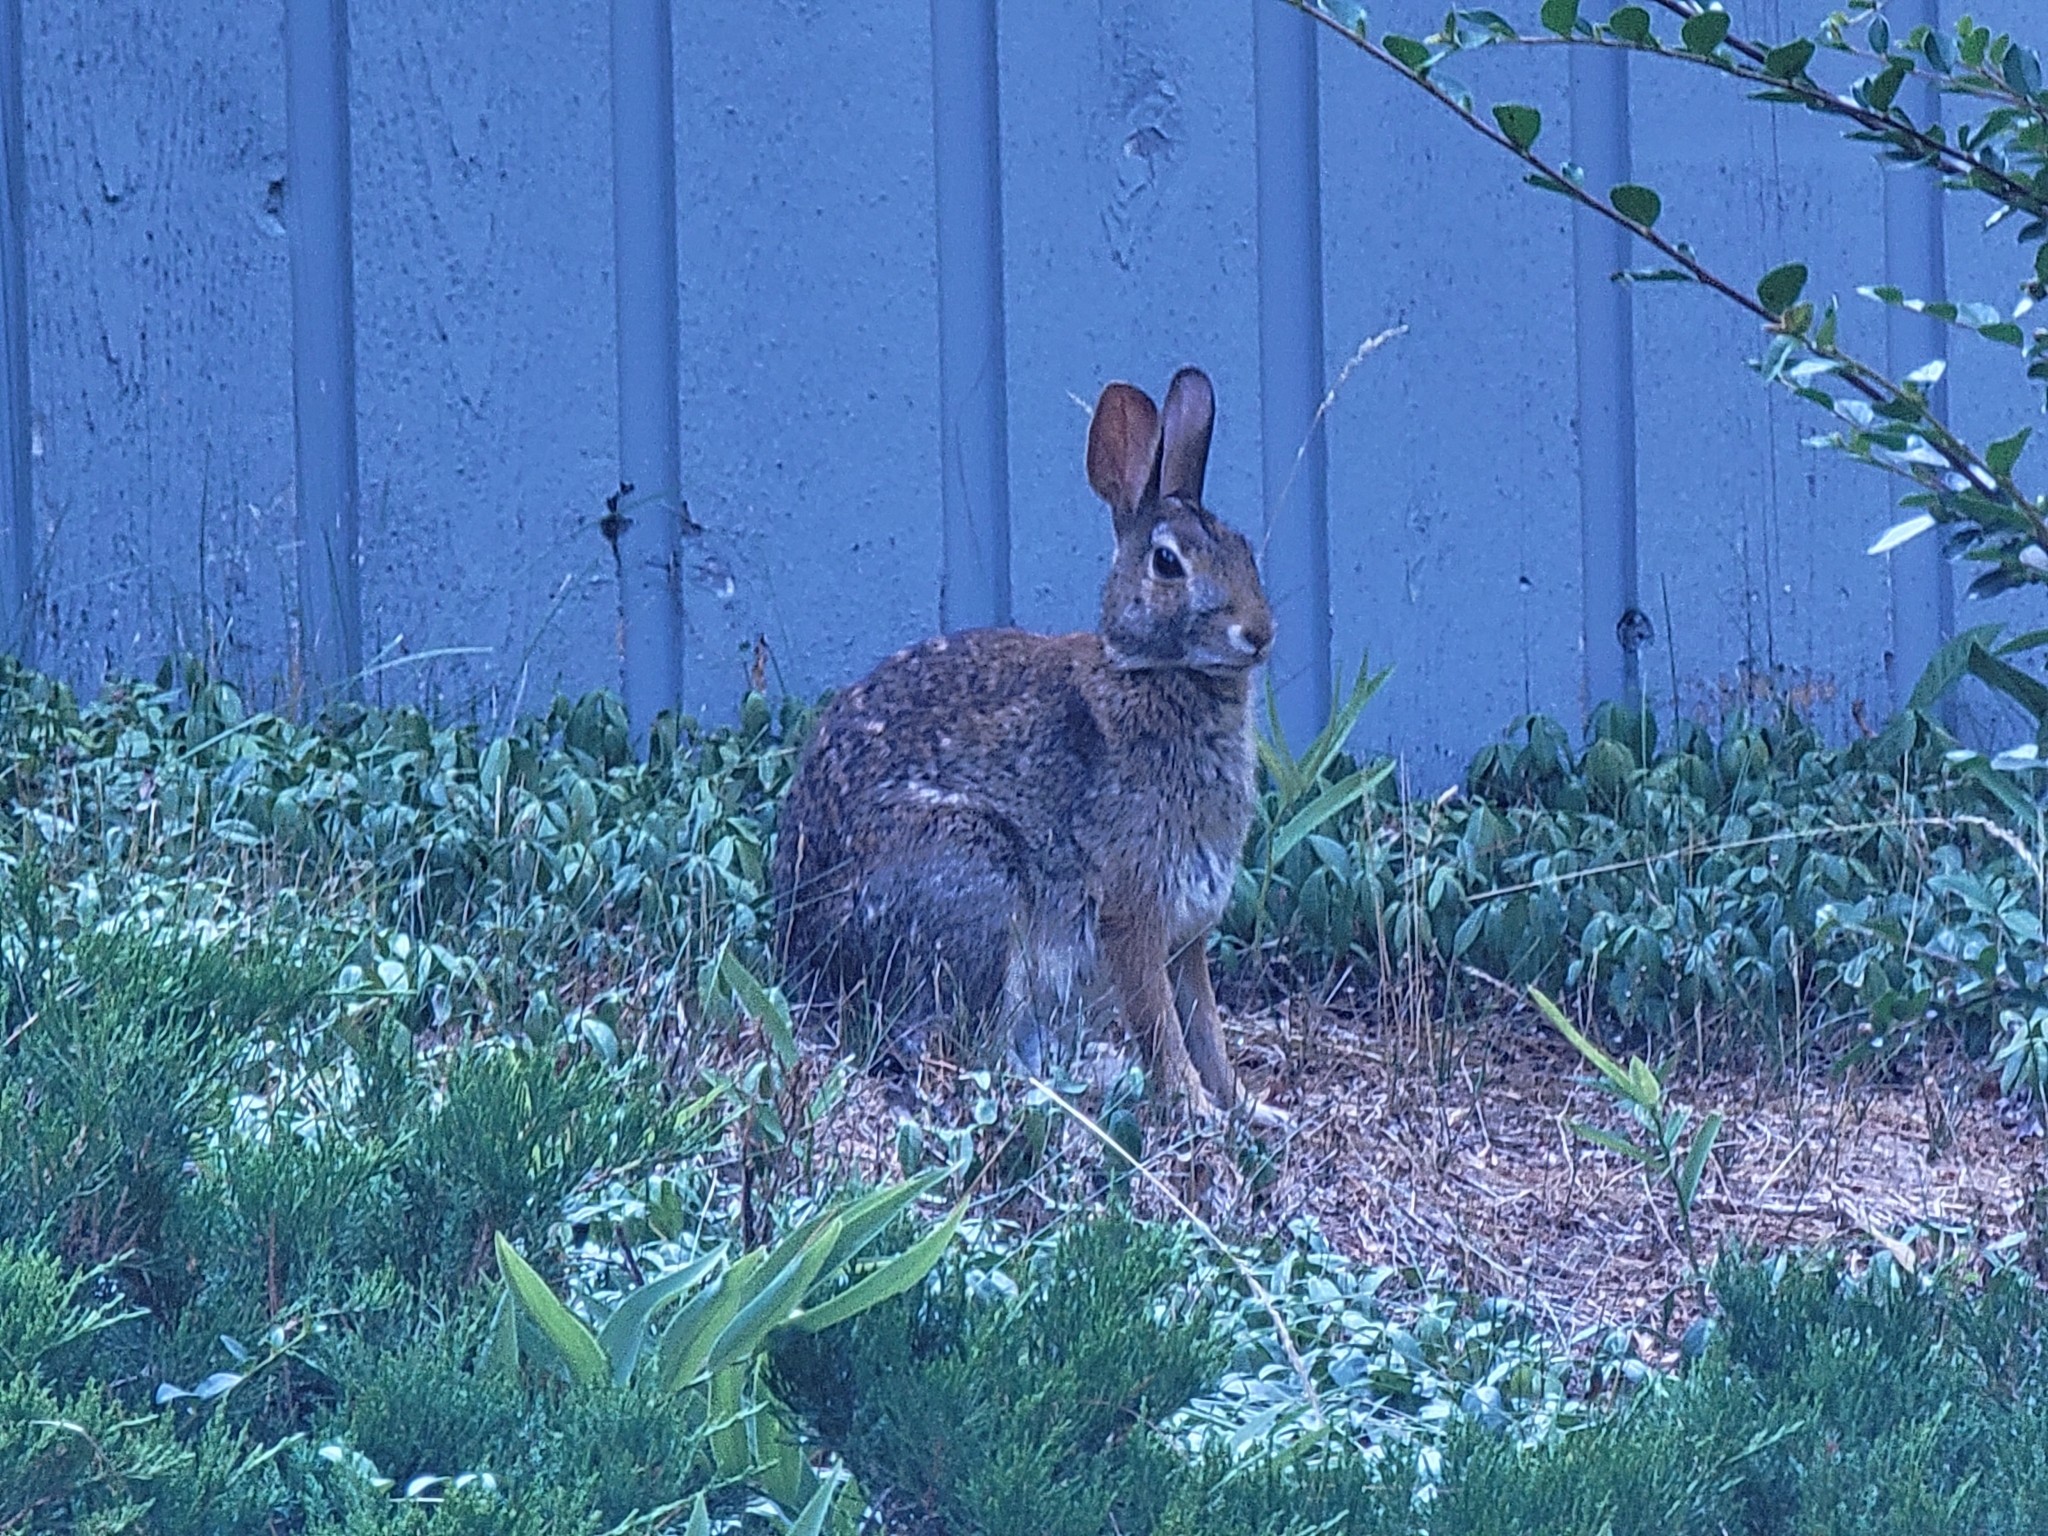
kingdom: Animalia
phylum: Chordata
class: Mammalia
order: Lagomorpha
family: Leporidae
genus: Sylvilagus
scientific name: Sylvilagus floridanus
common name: Eastern cottontail
